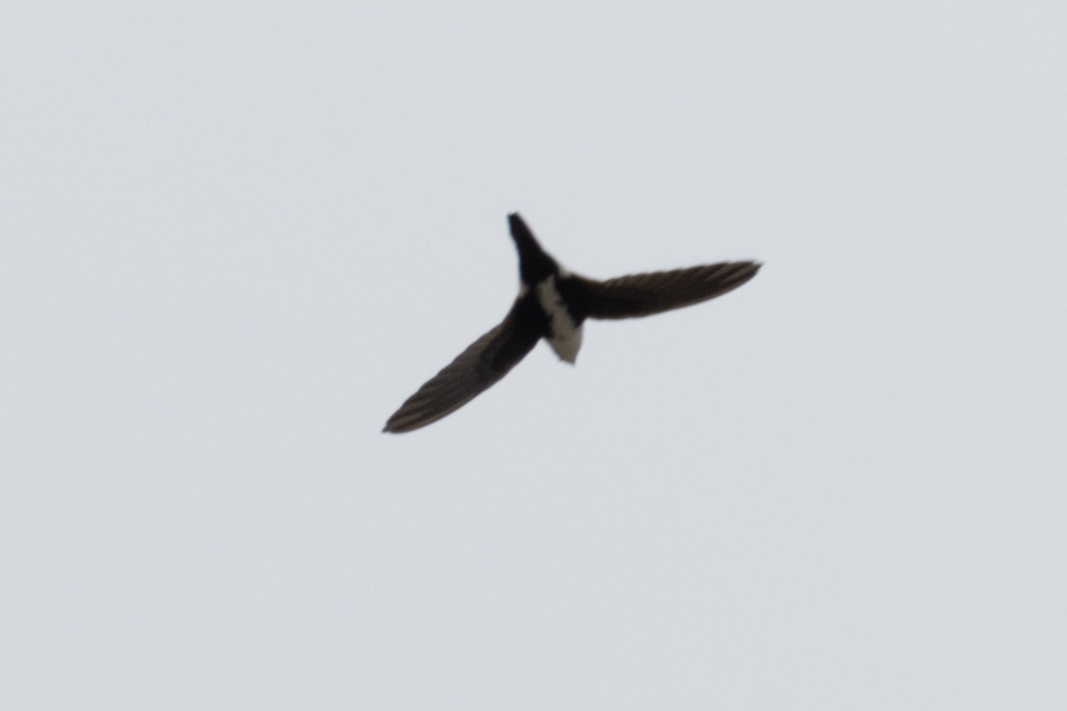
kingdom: Animalia
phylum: Chordata
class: Aves
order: Apodiformes
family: Apodidae
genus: Aeronautes
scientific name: Aeronautes saxatalis
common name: White-throated swift
